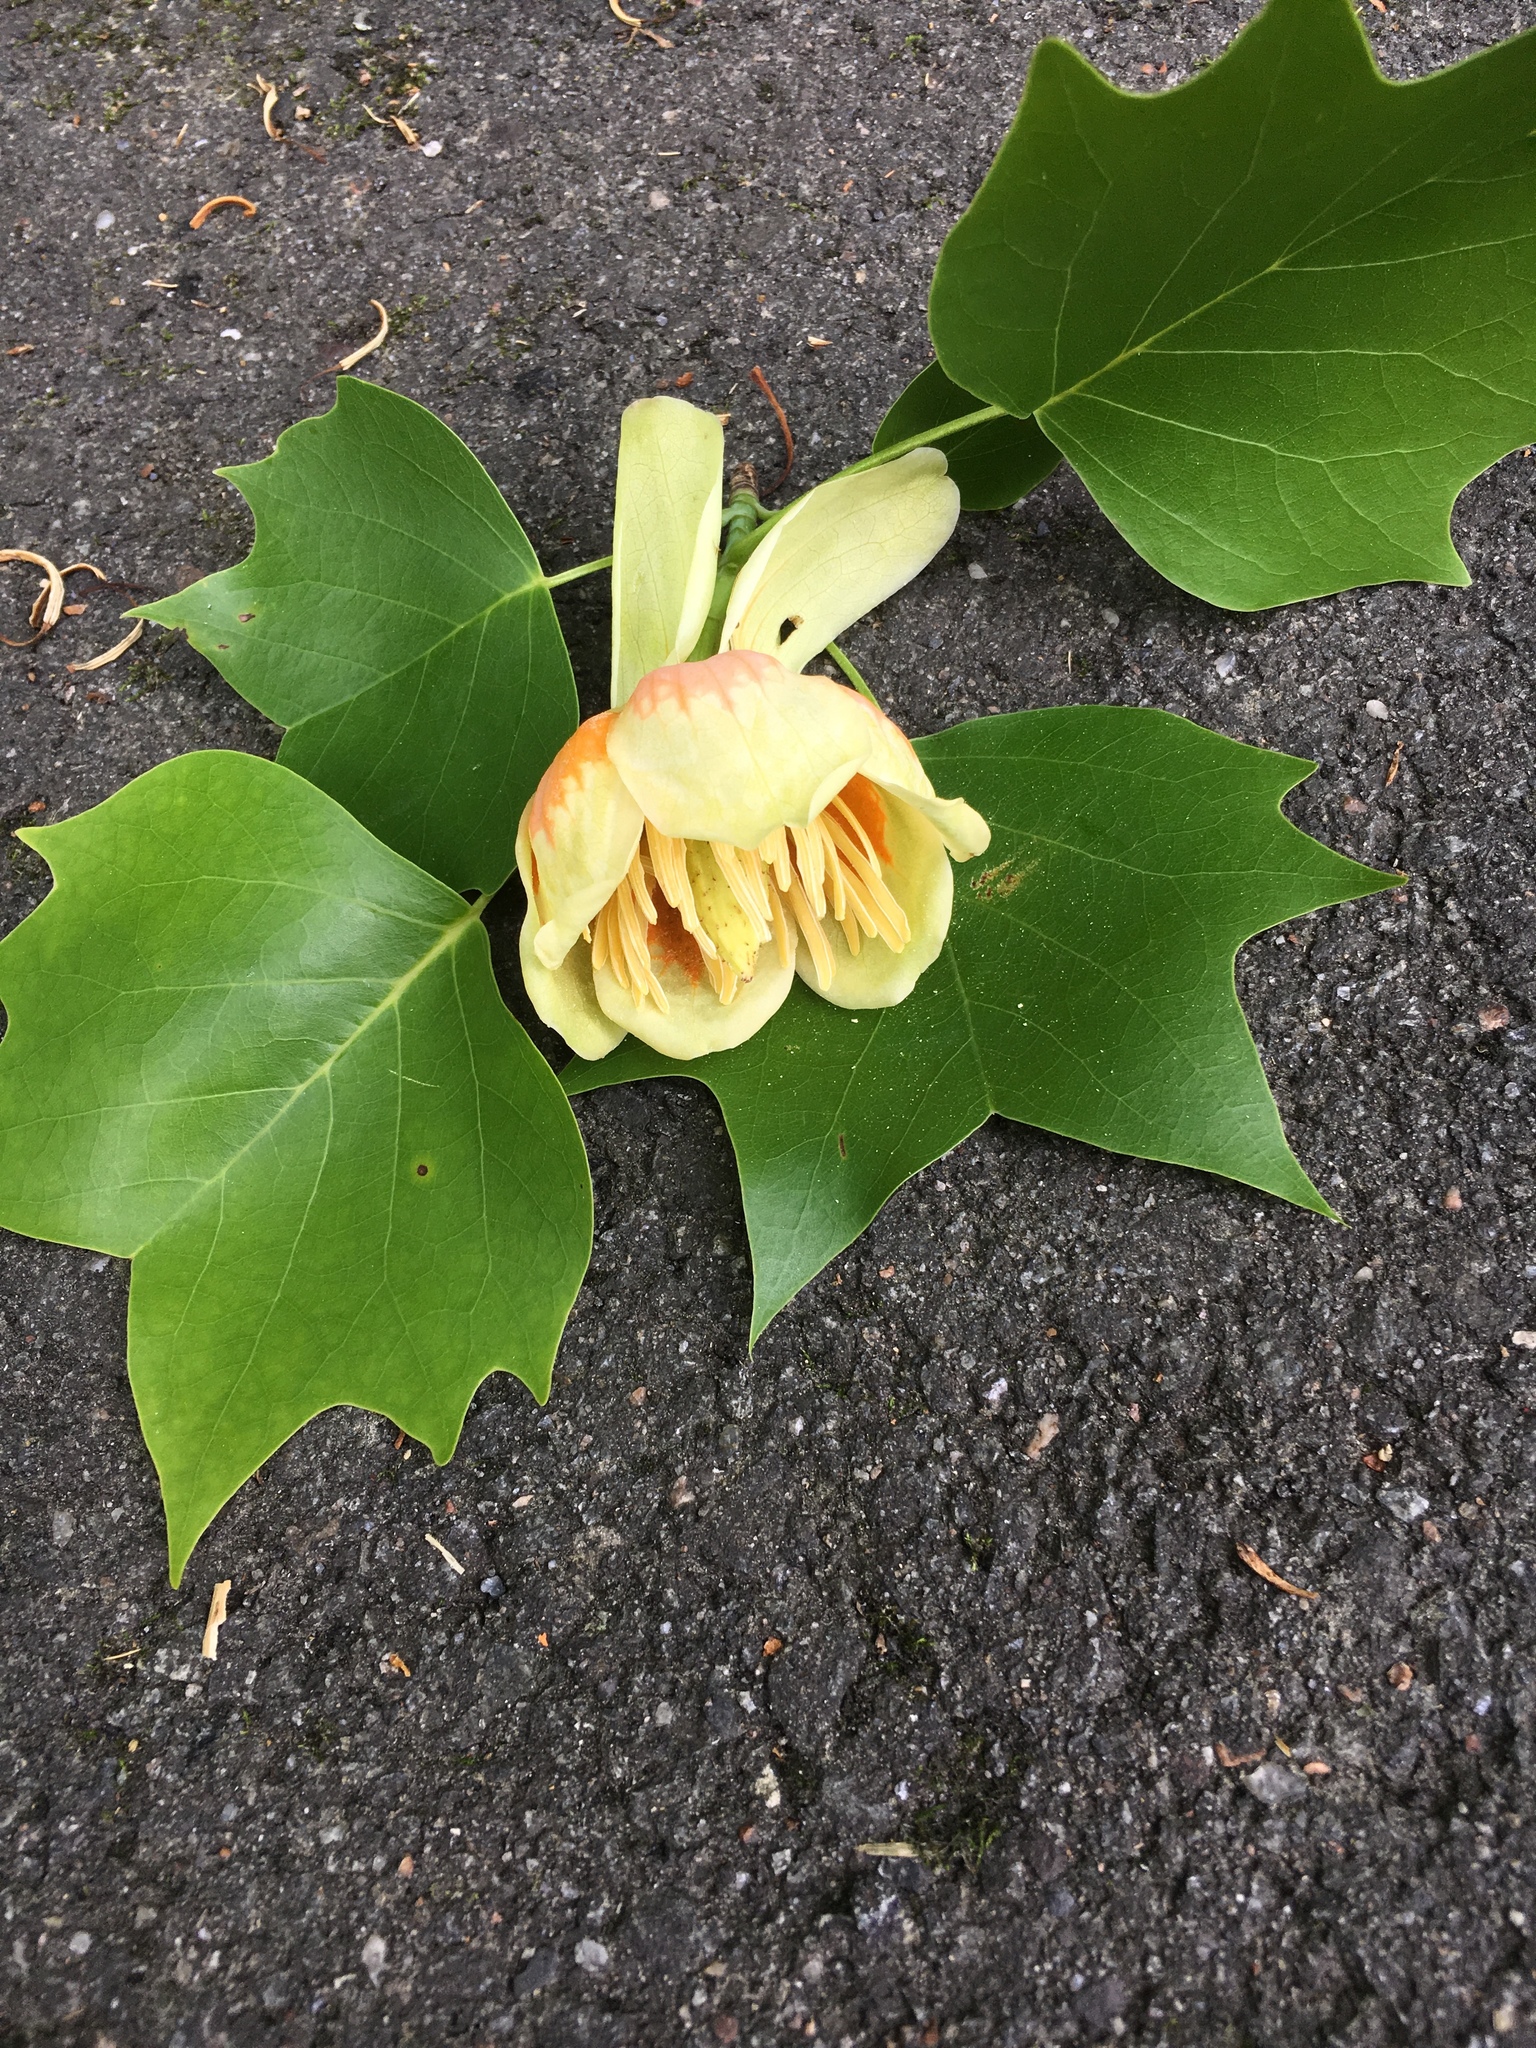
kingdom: Plantae
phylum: Tracheophyta
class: Magnoliopsida
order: Magnoliales
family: Magnoliaceae
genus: Liriodendron
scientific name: Liriodendron tulipifera
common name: Tulip tree
